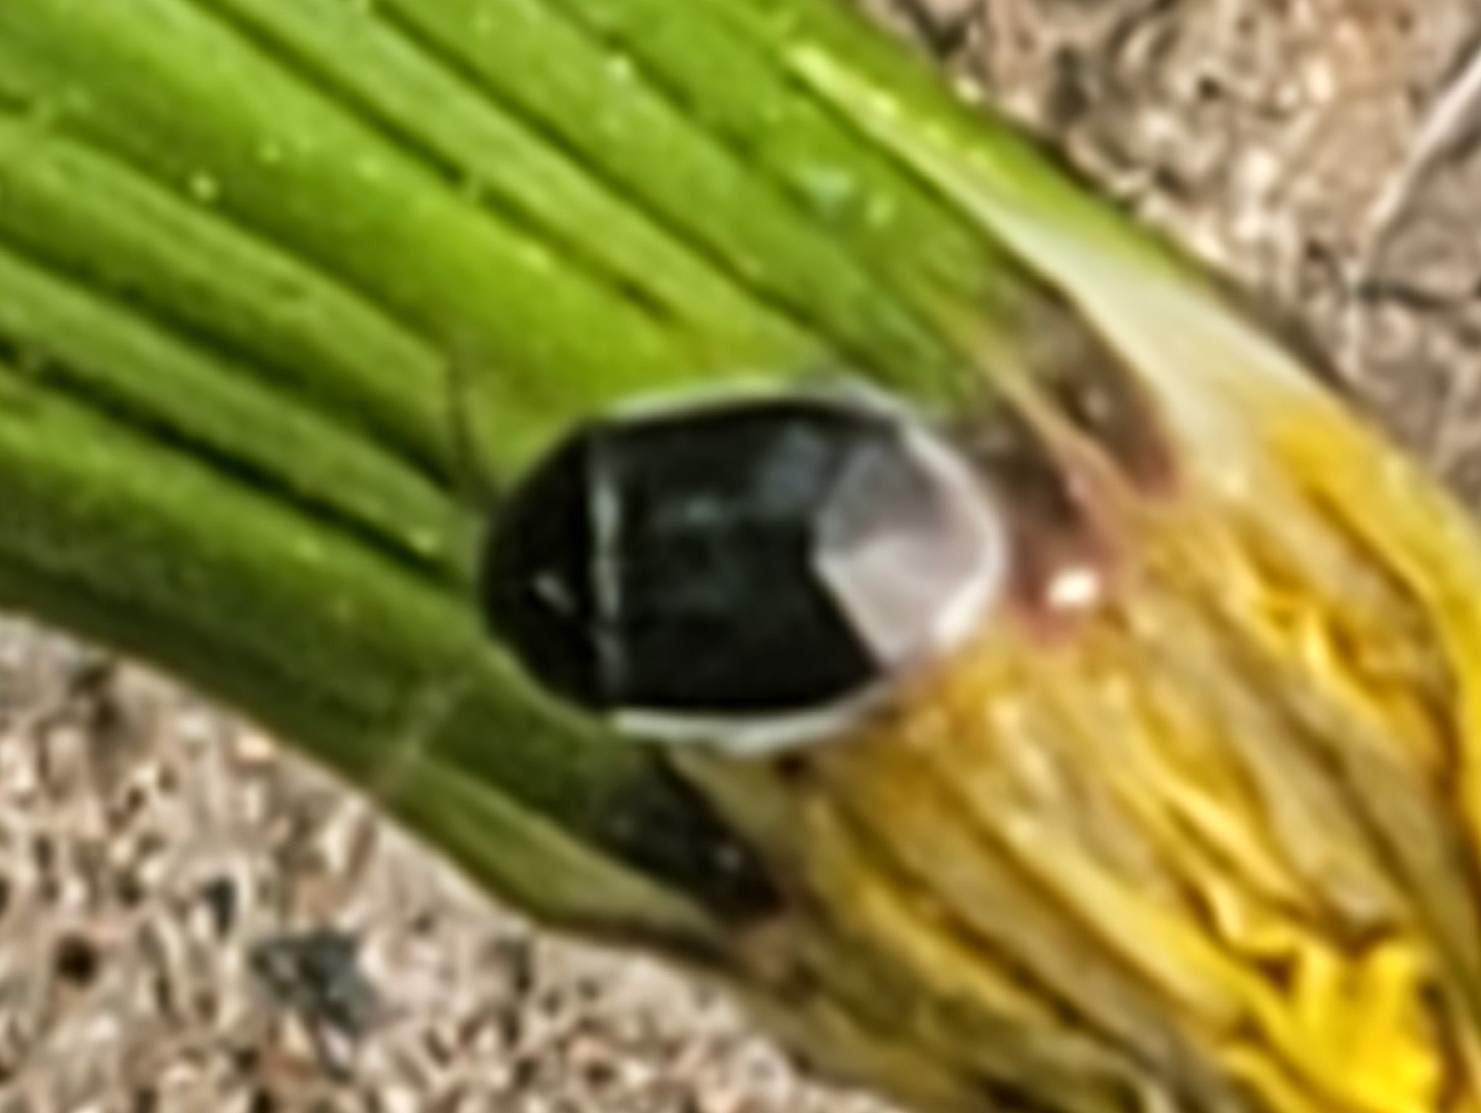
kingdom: Animalia
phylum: Arthropoda
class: Insecta
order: Hemiptera
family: Cydnidae
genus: Sehirus
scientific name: Sehirus cinctus
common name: White-margined burrower bug
